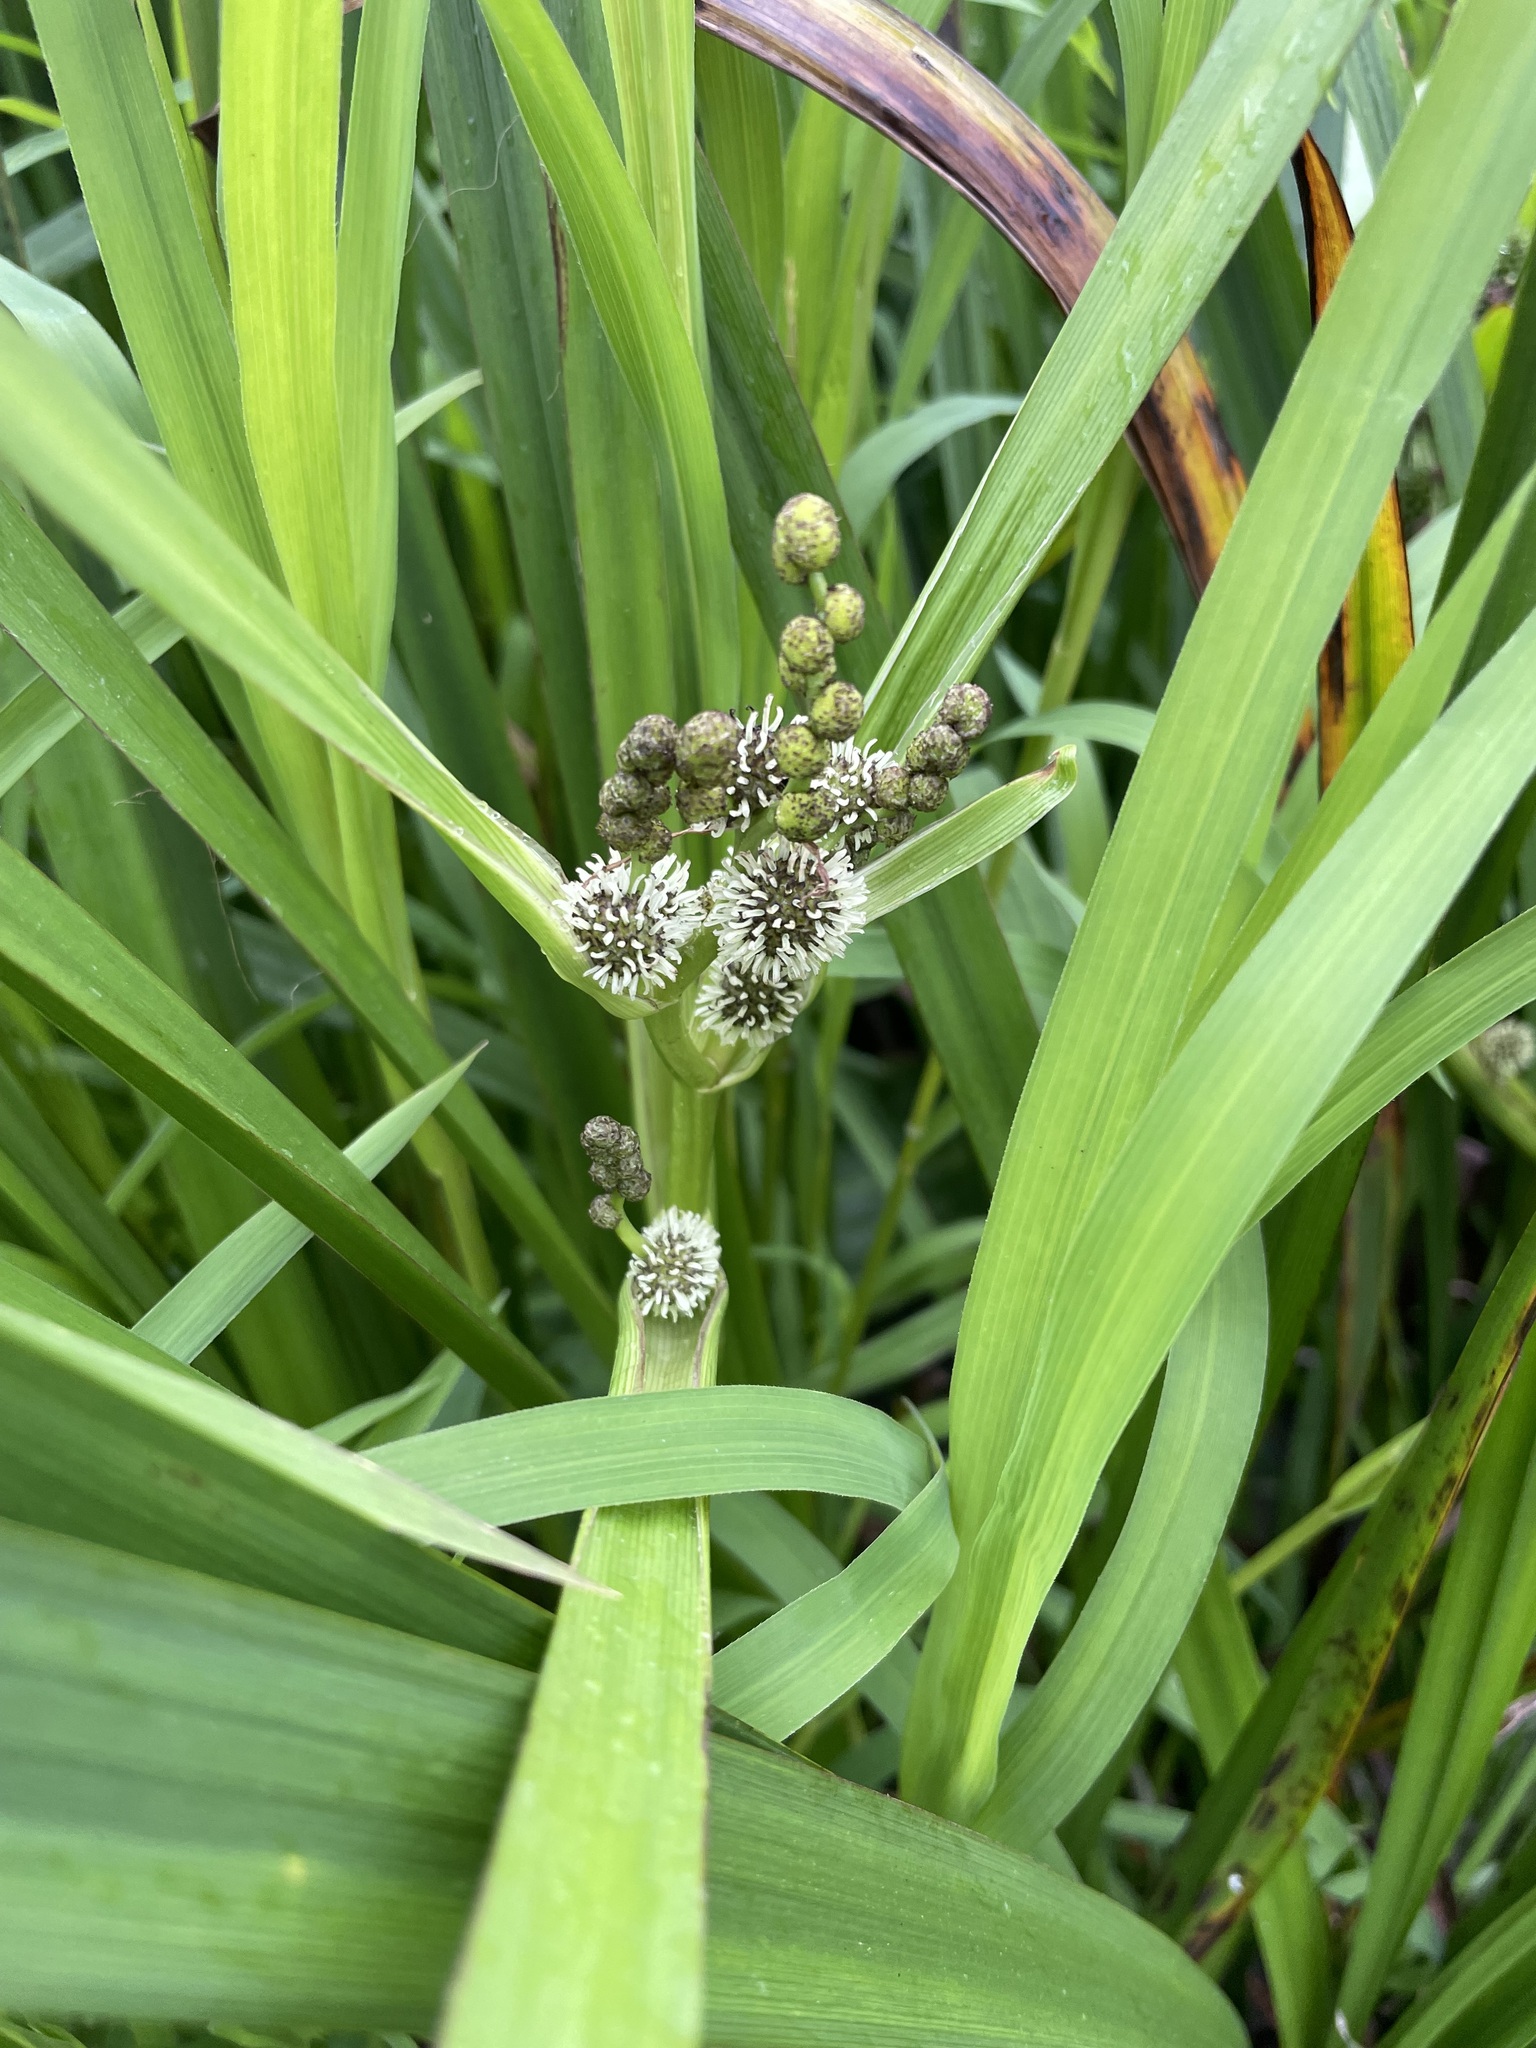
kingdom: Plantae
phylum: Tracheophyta
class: Liliopsida
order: Poales
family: Typhaceae
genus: Sparganium
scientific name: Sparganium erectum
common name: Branched bur-reed
